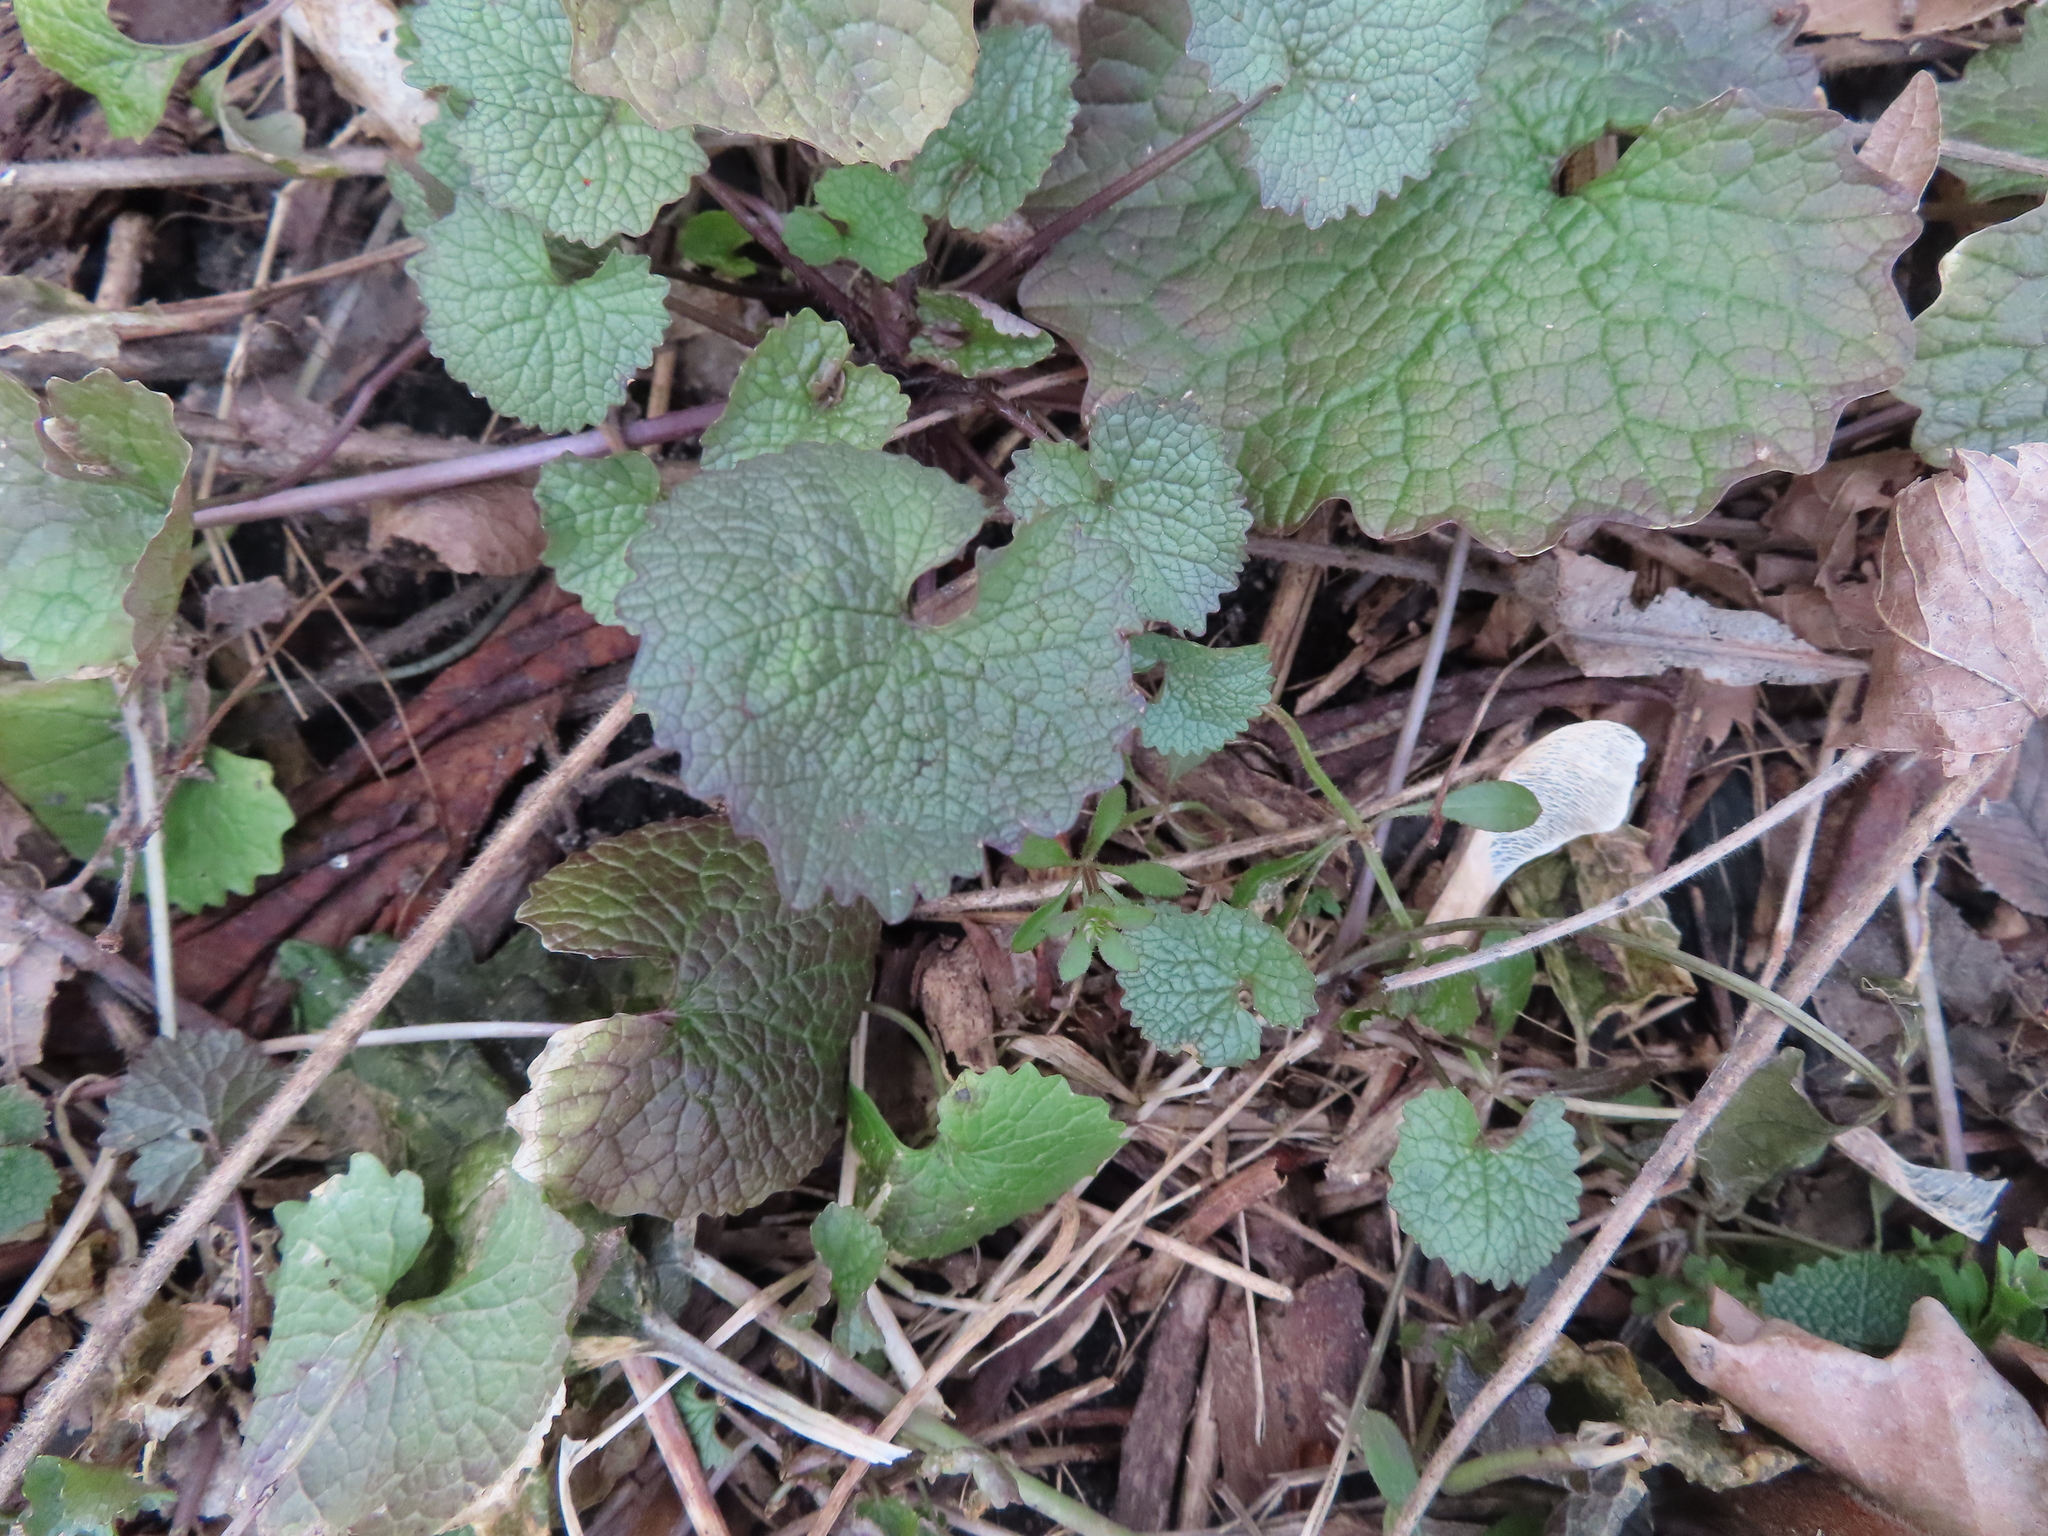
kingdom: Plantae
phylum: Tracheophyta
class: Magnoliopsida
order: Brassicales
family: Brassicaceae
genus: Alliaria
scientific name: Alliaria petiolata
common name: Garlic mustard
